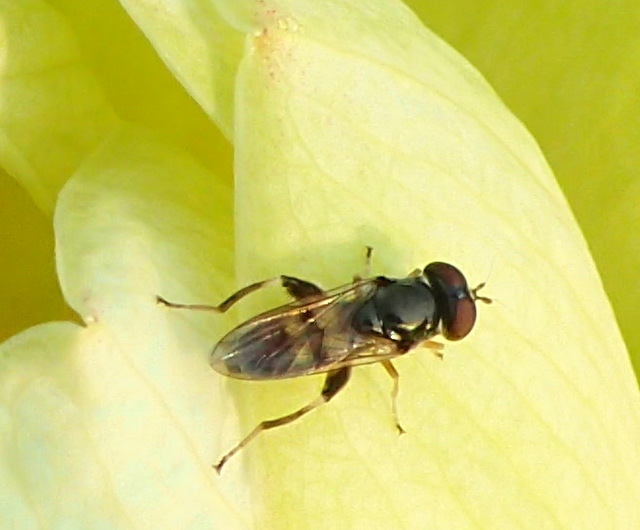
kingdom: Animalia
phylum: Arthropoda
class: Insecta
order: Diptera
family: Syrphidae
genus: Chalcosyrphus
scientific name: Chalcosyrphus metallicus
